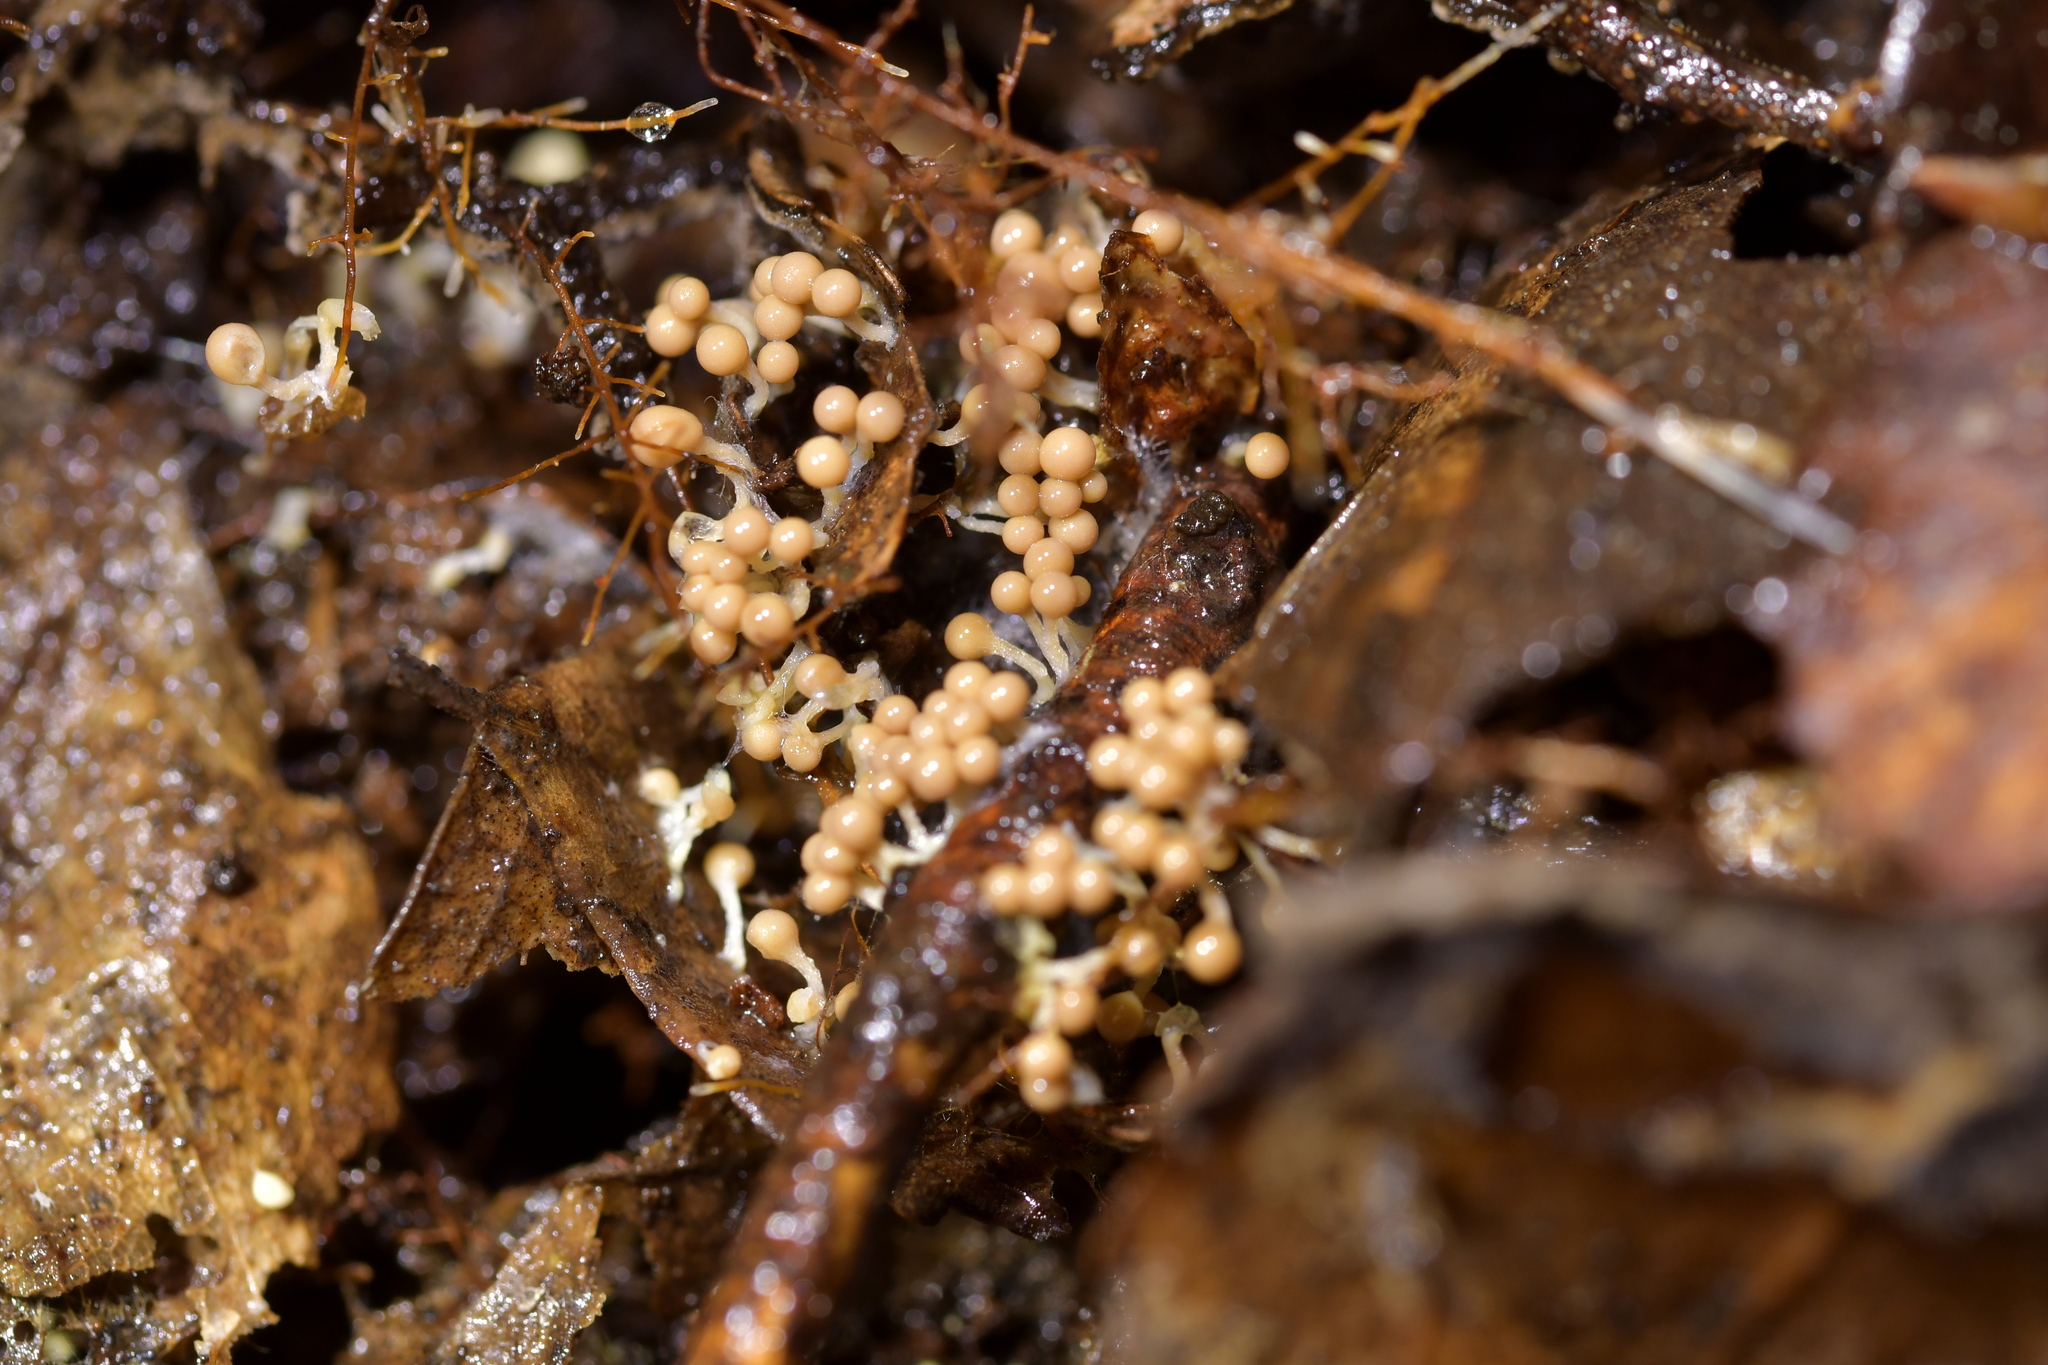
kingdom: Protozoa
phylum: Mycetozoa
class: Myxomycetes
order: Trichiales
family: Arcyriaceae
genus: Hemitrichia
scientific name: Hemitrichia decipiens
